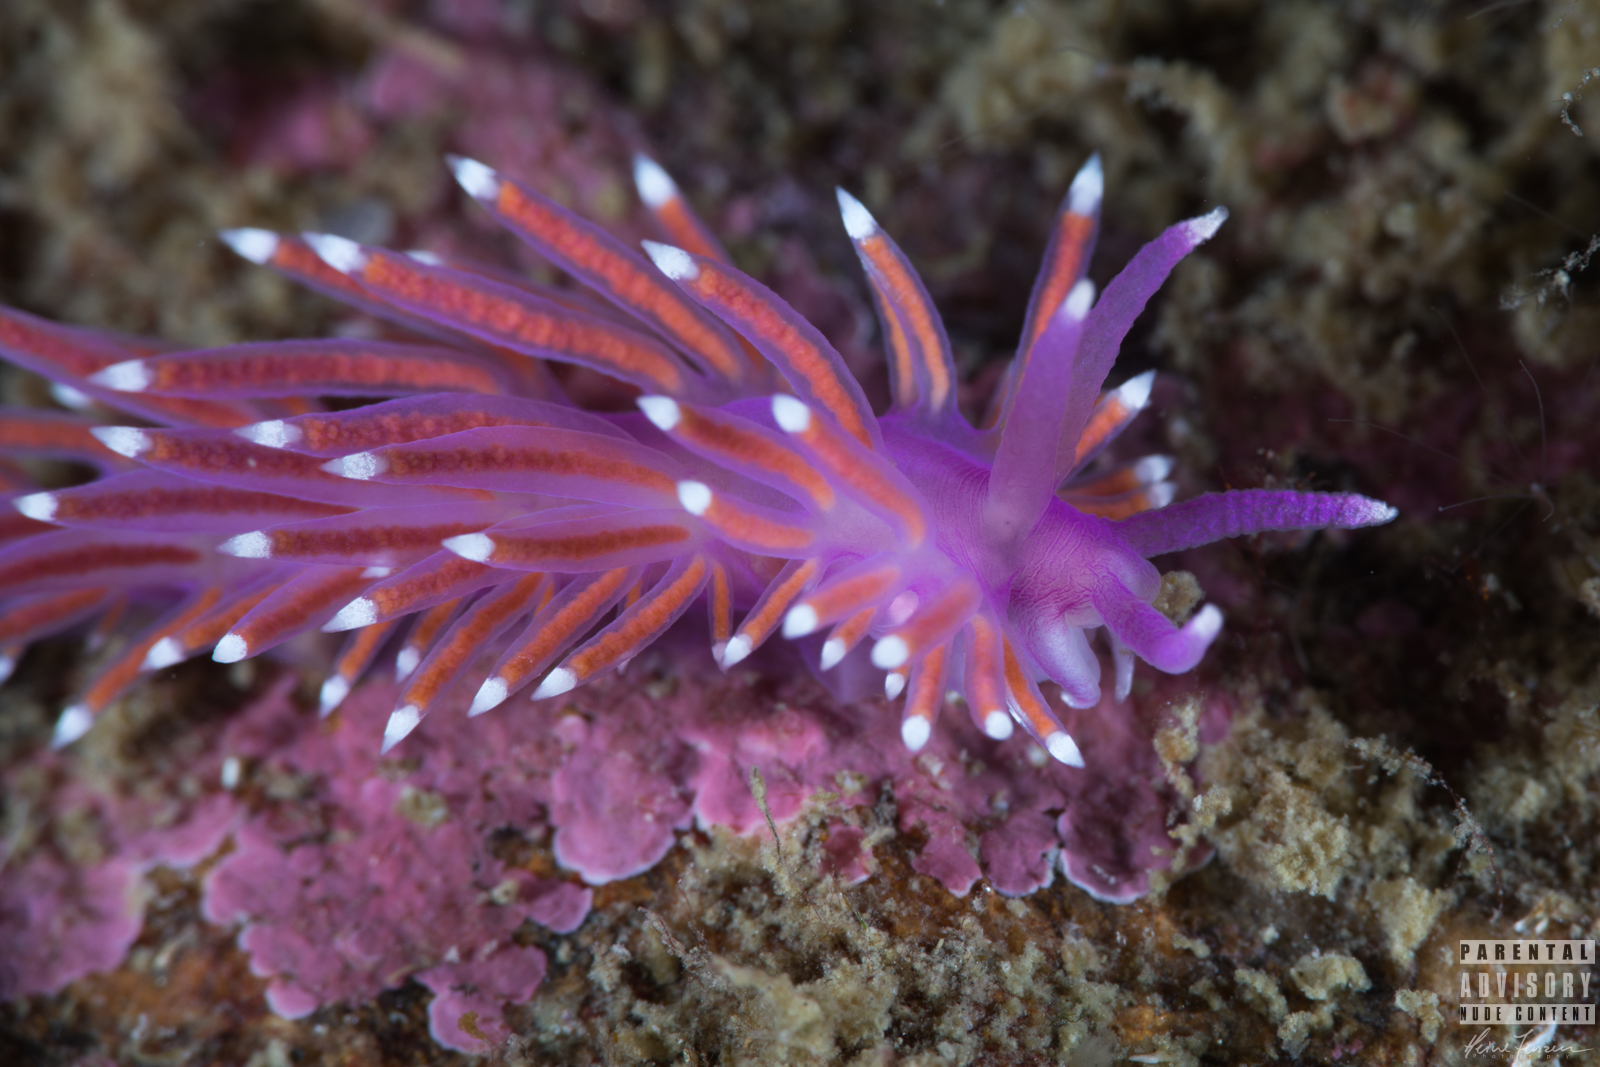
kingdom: Animalia
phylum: Mollusca
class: Gastropoda
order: Nudibranchia
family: Flabellinidae
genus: Edmundsella
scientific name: Edmundsella pedata
